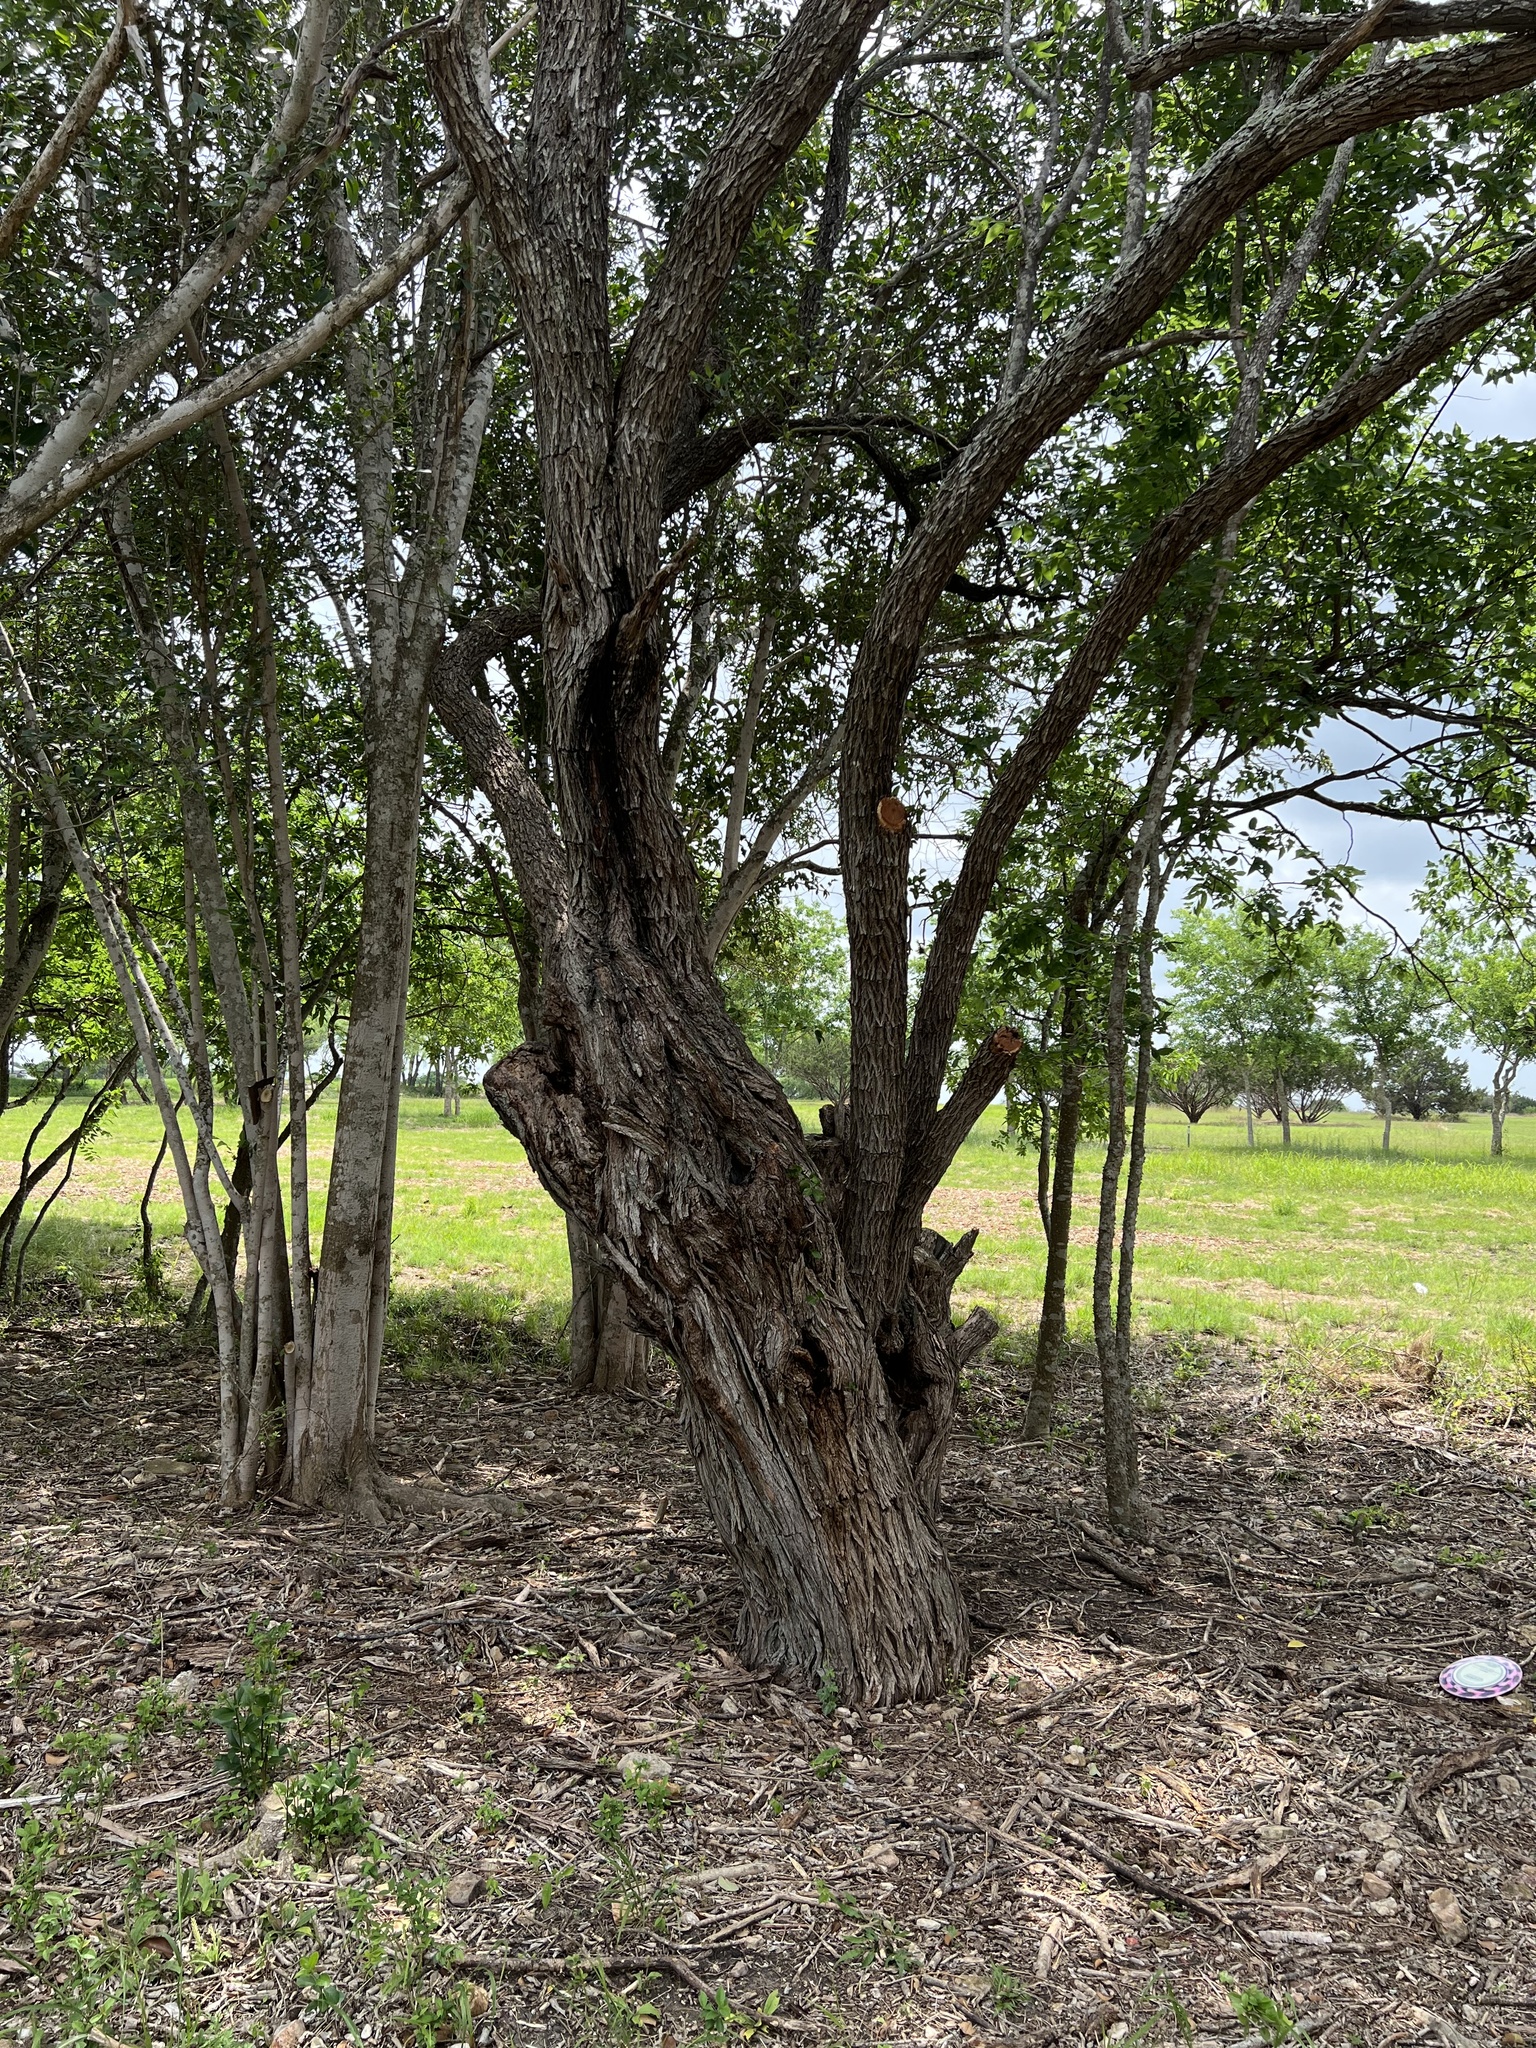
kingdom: Plantae
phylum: Tracheophyta
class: Magnoliopsida
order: Fabales
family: Fabaceae
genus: Prosopis
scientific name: Prosopis glandulosa
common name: Honey mesquite
